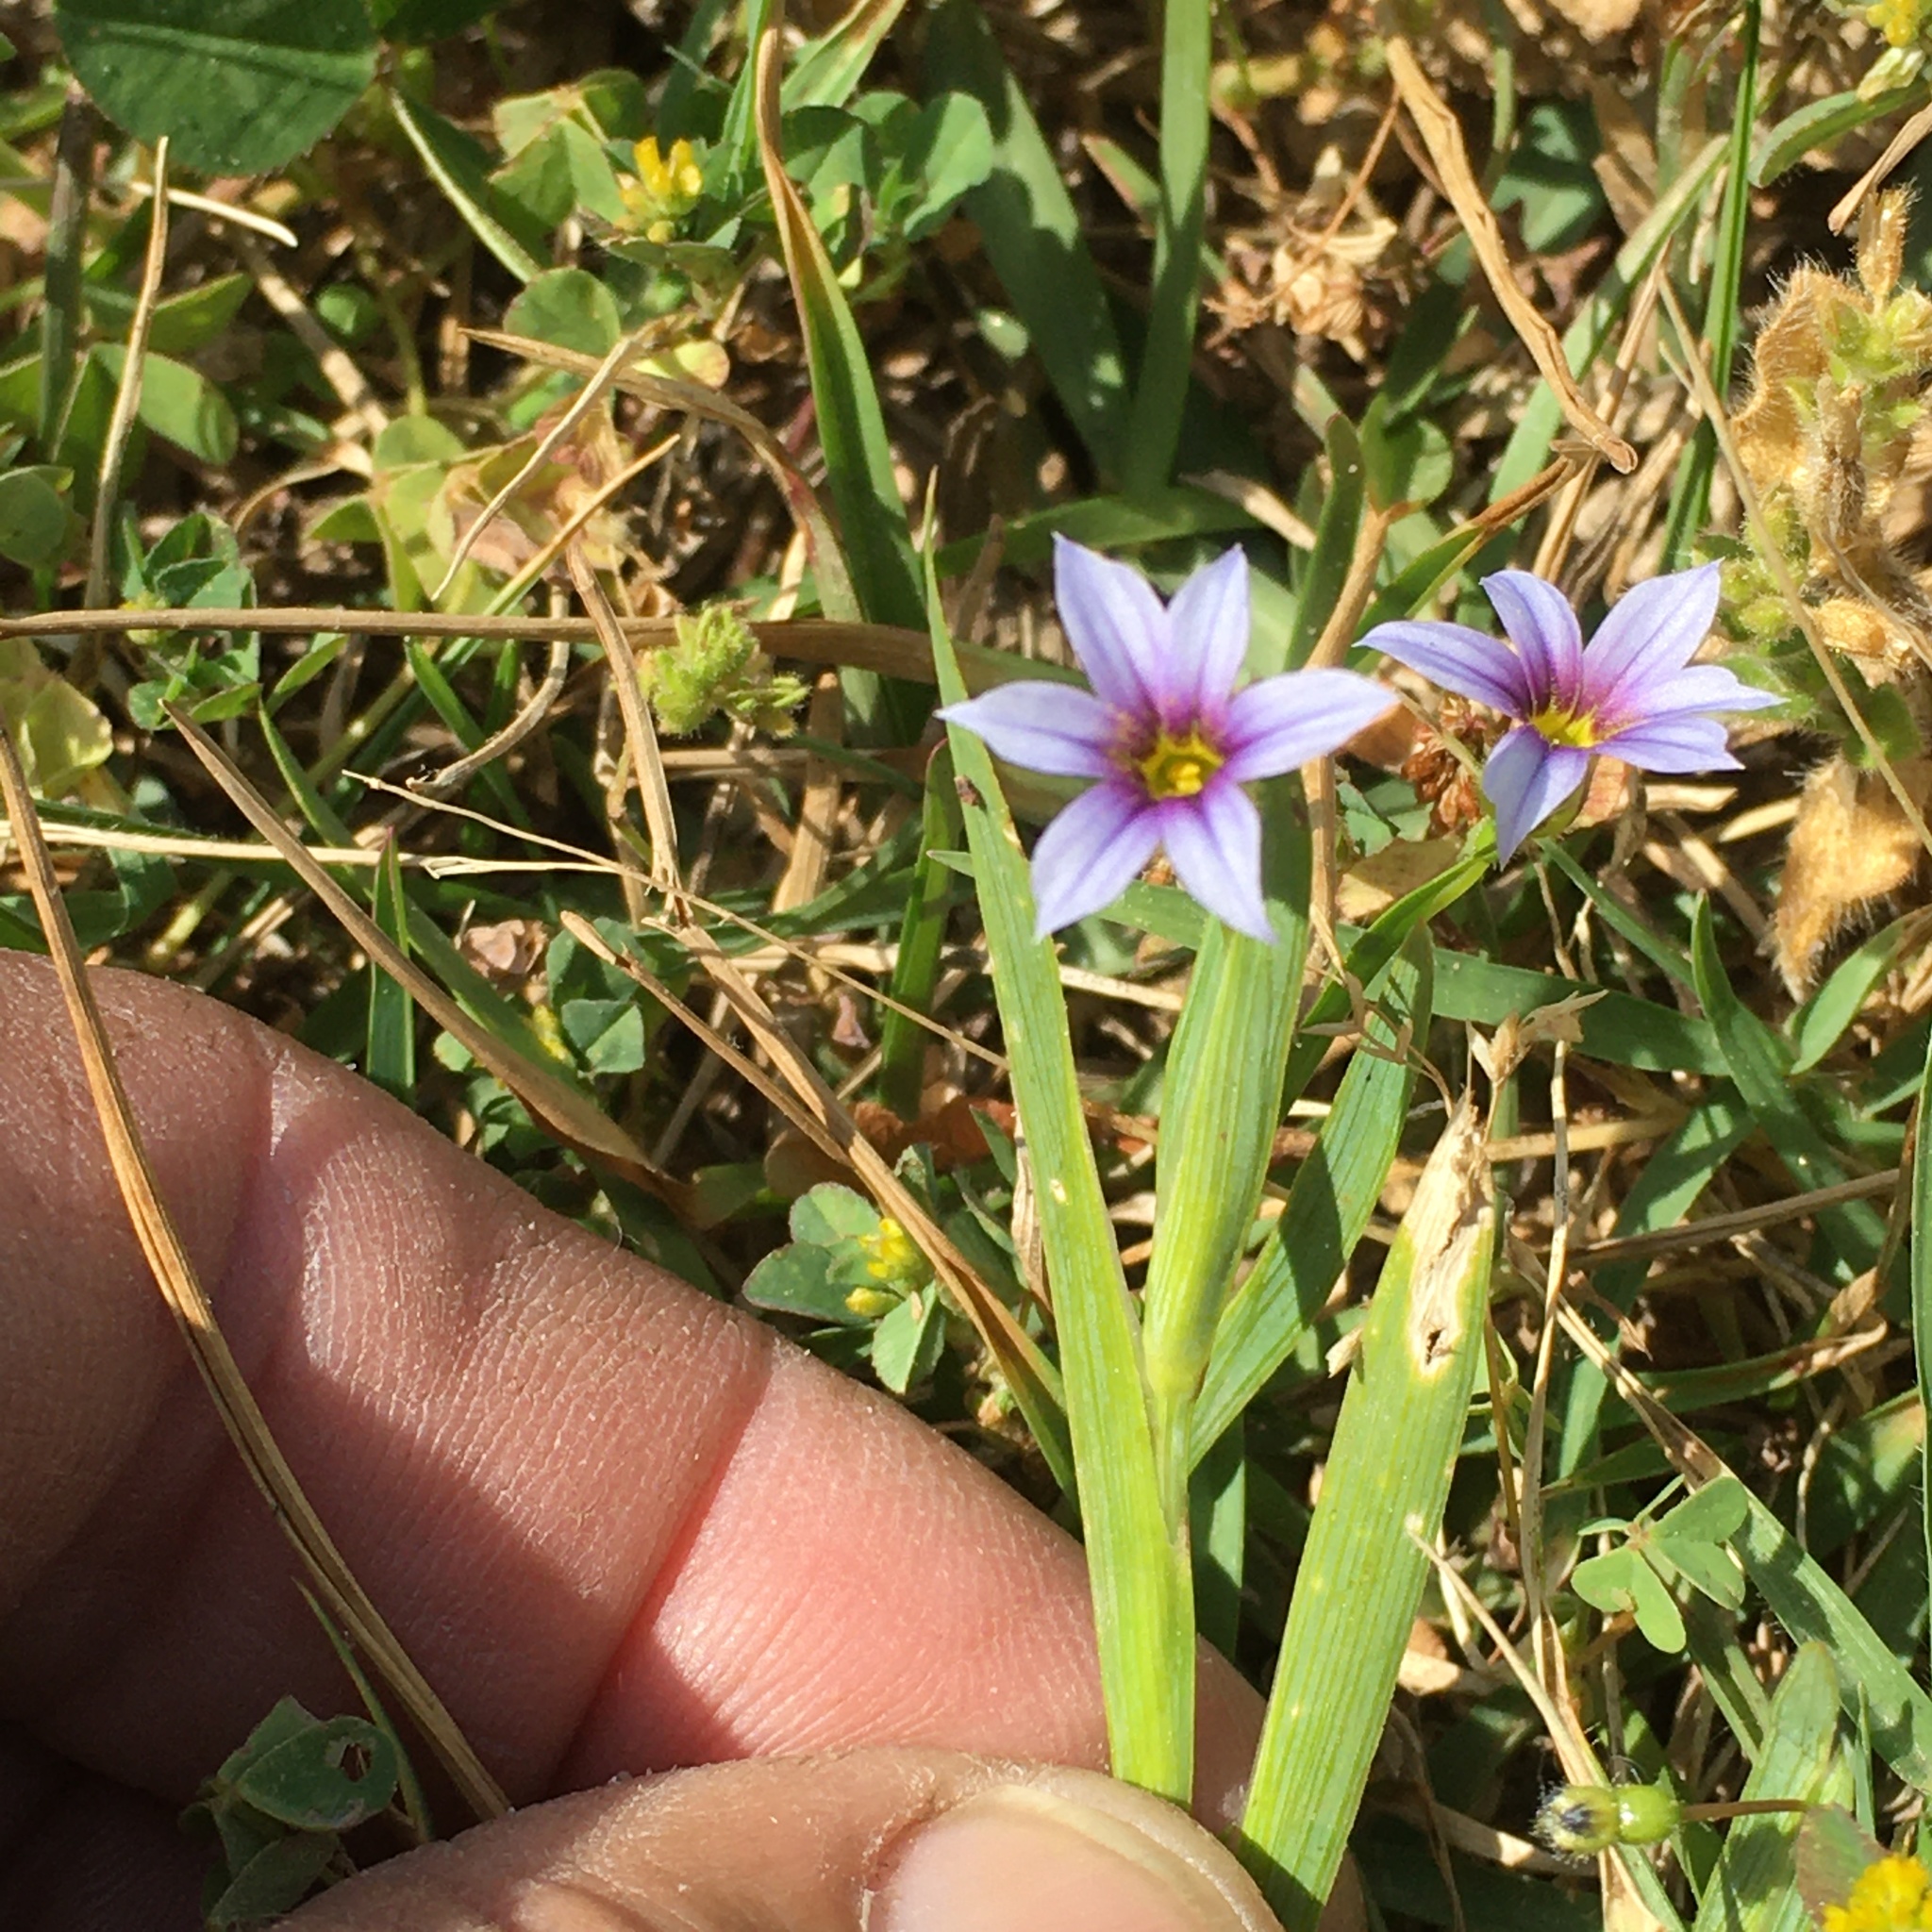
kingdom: Plantae
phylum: Tracheophyta
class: Liliopsida
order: Asparagales
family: Iridaceae
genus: Sisyrinchium
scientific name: Sisyrinchium micranthum
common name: Bermuda pigroot
